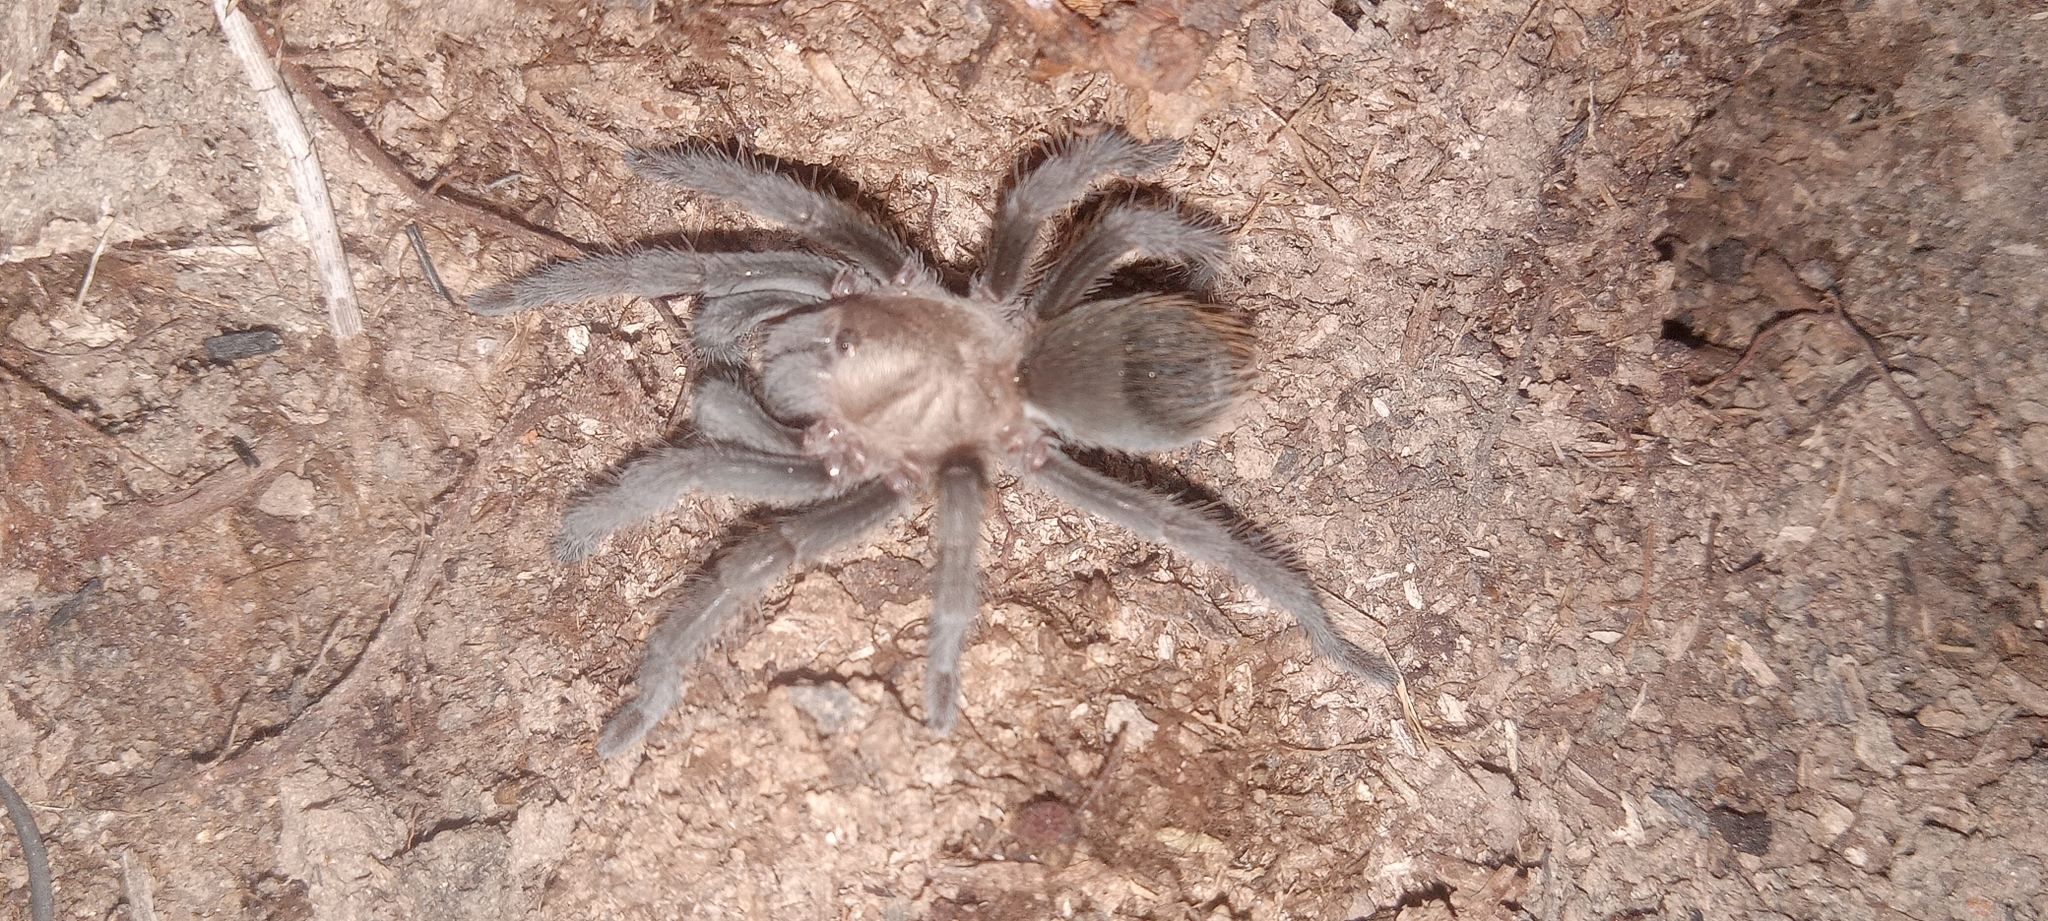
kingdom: Animalia
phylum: Arthropoda
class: Arachnida
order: Araneae
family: Theraphosidae
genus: Aphonopelma
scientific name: Aphonopelma hentzi
